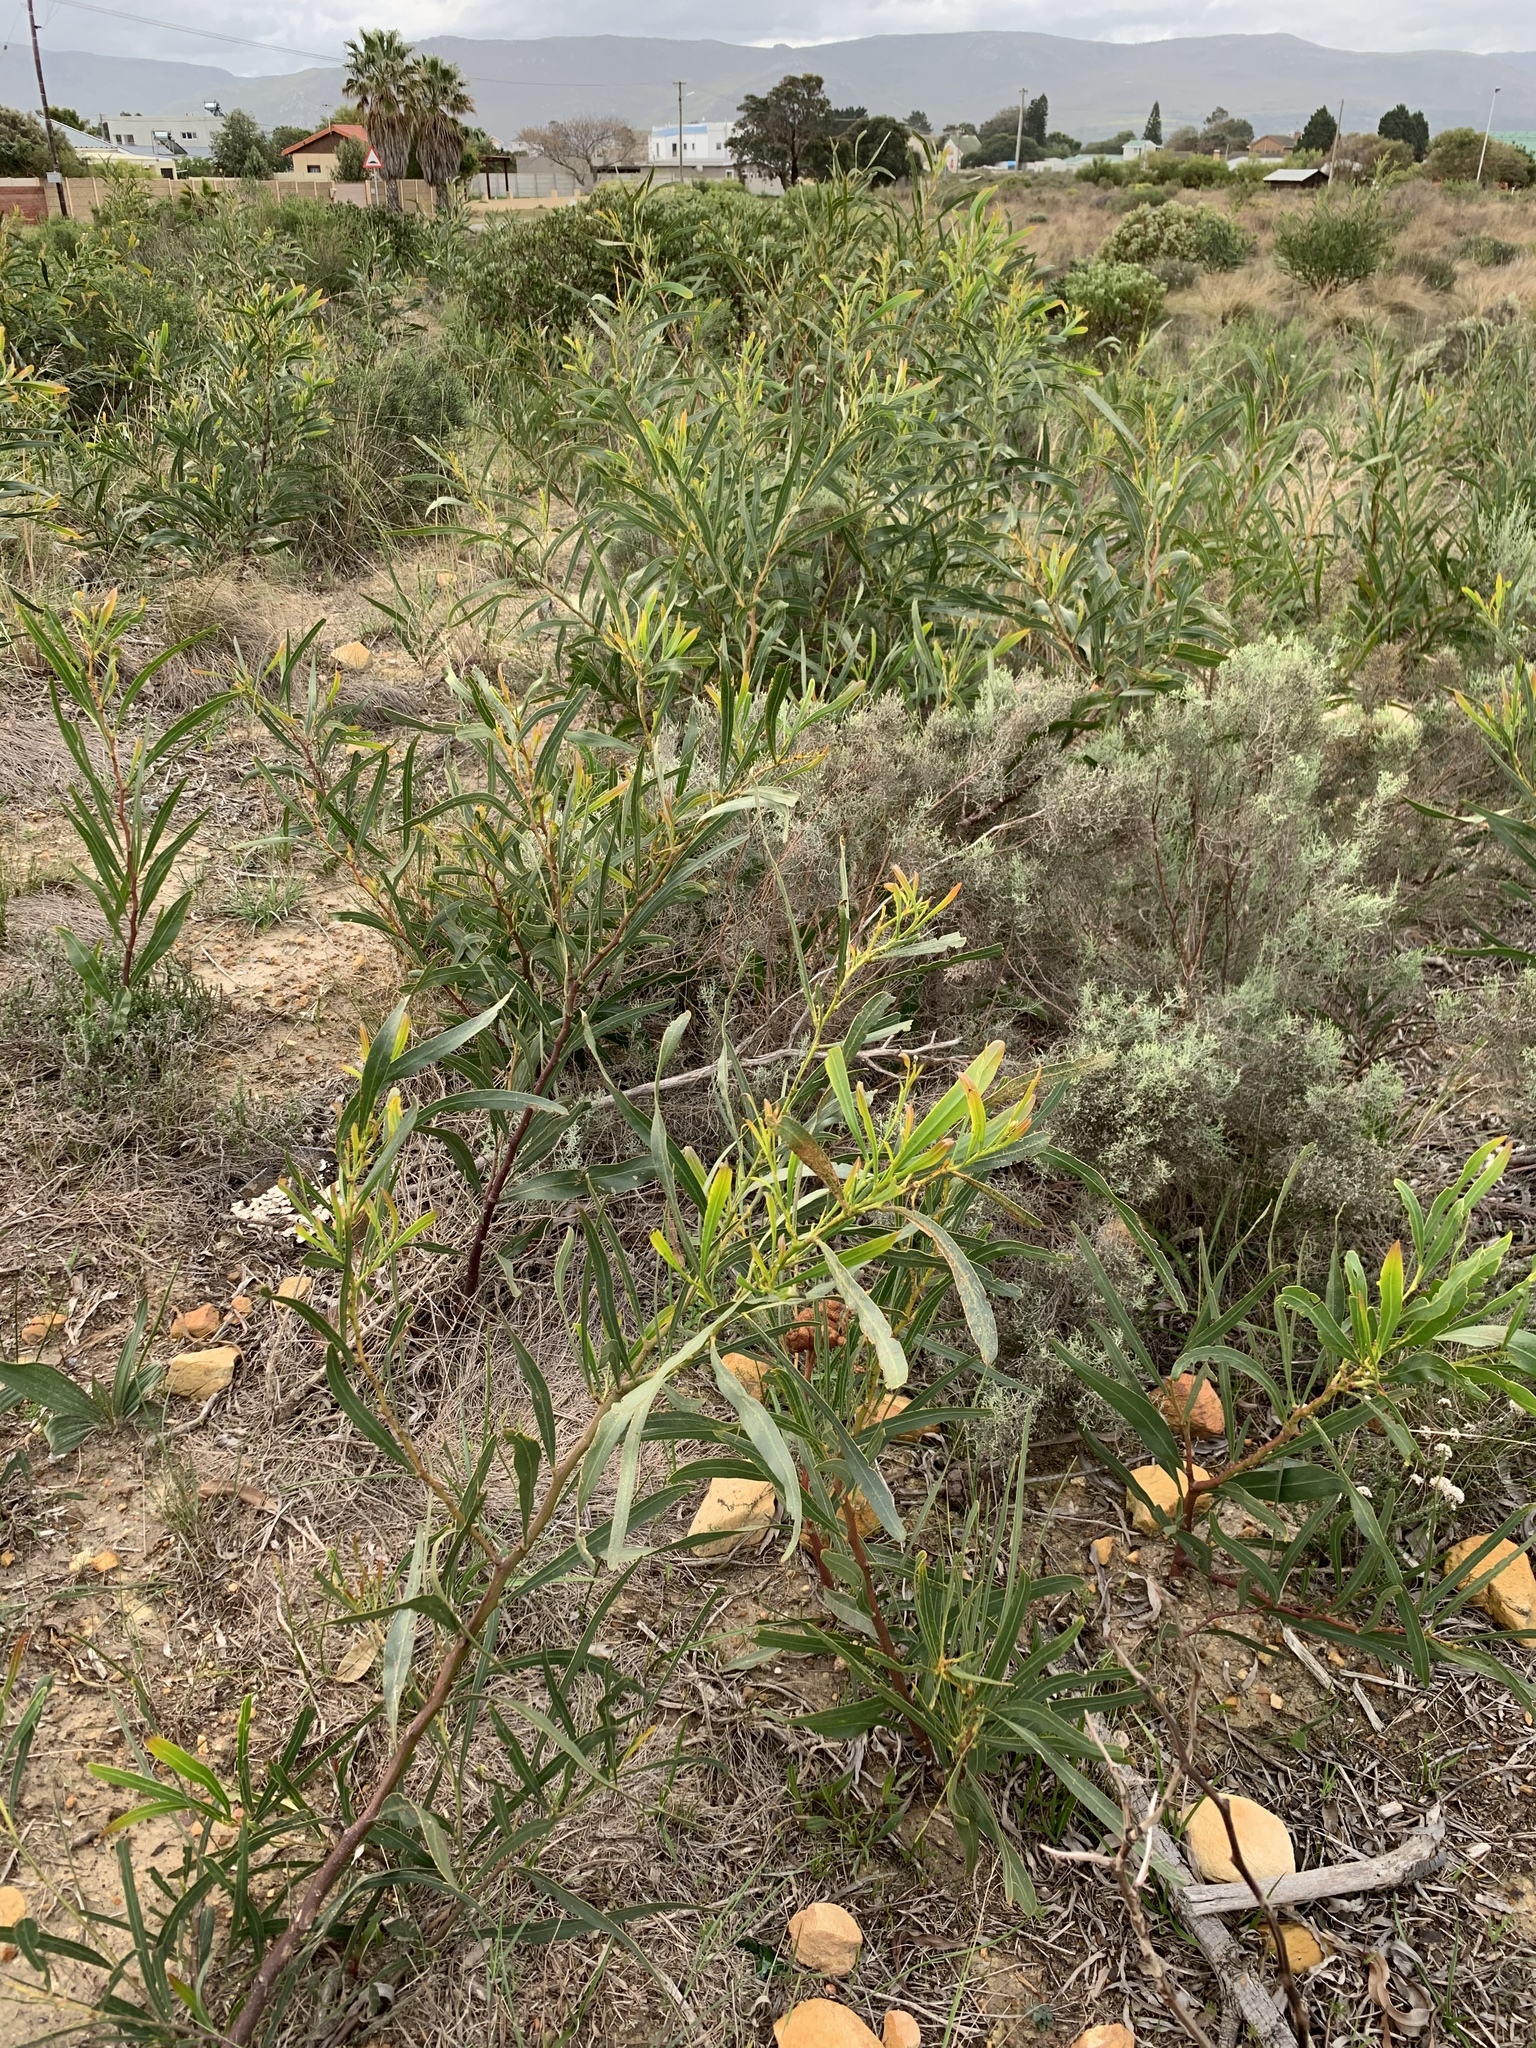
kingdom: Plantae
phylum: Tracheophyta
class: Magnoliopsida
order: Fabales
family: Fabaceae
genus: Acacia
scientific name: Acacia saligna
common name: Orange wattle
